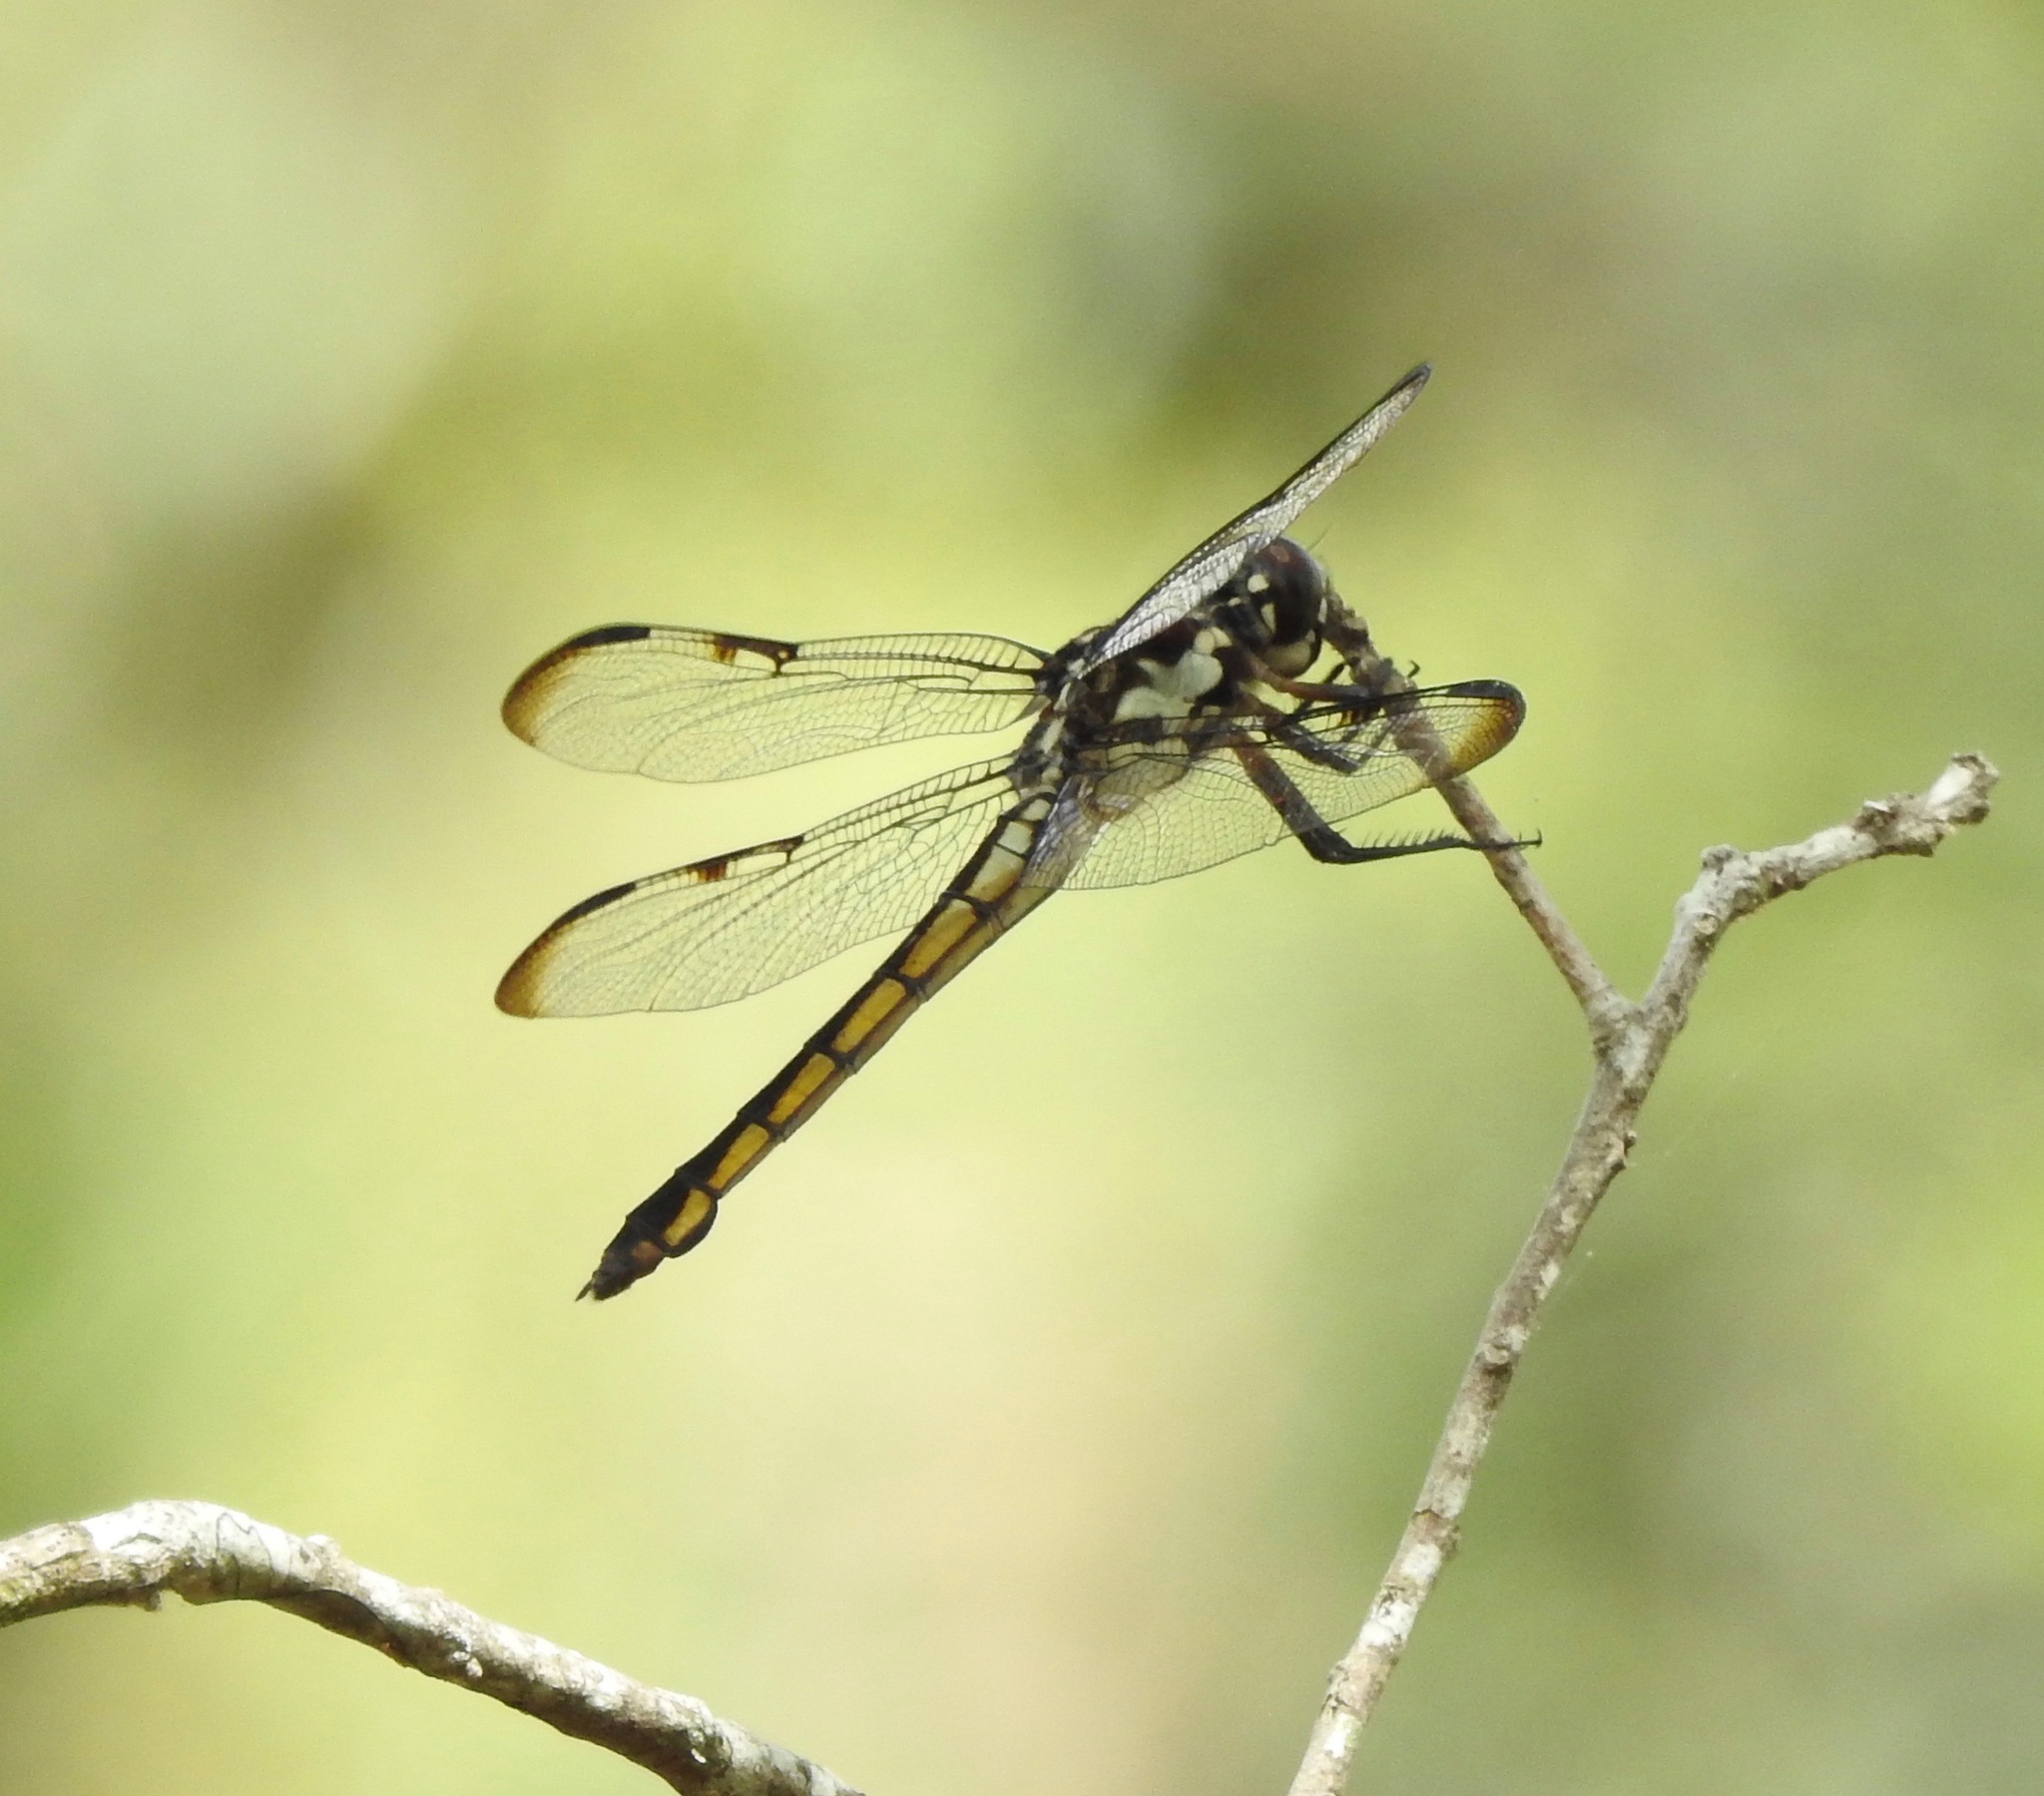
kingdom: Animalia
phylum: Arthropoda
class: Insecta
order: Odonata
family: Libellulidae
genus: Libellula
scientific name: Libellula axilena
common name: Bar-winged skimmer
